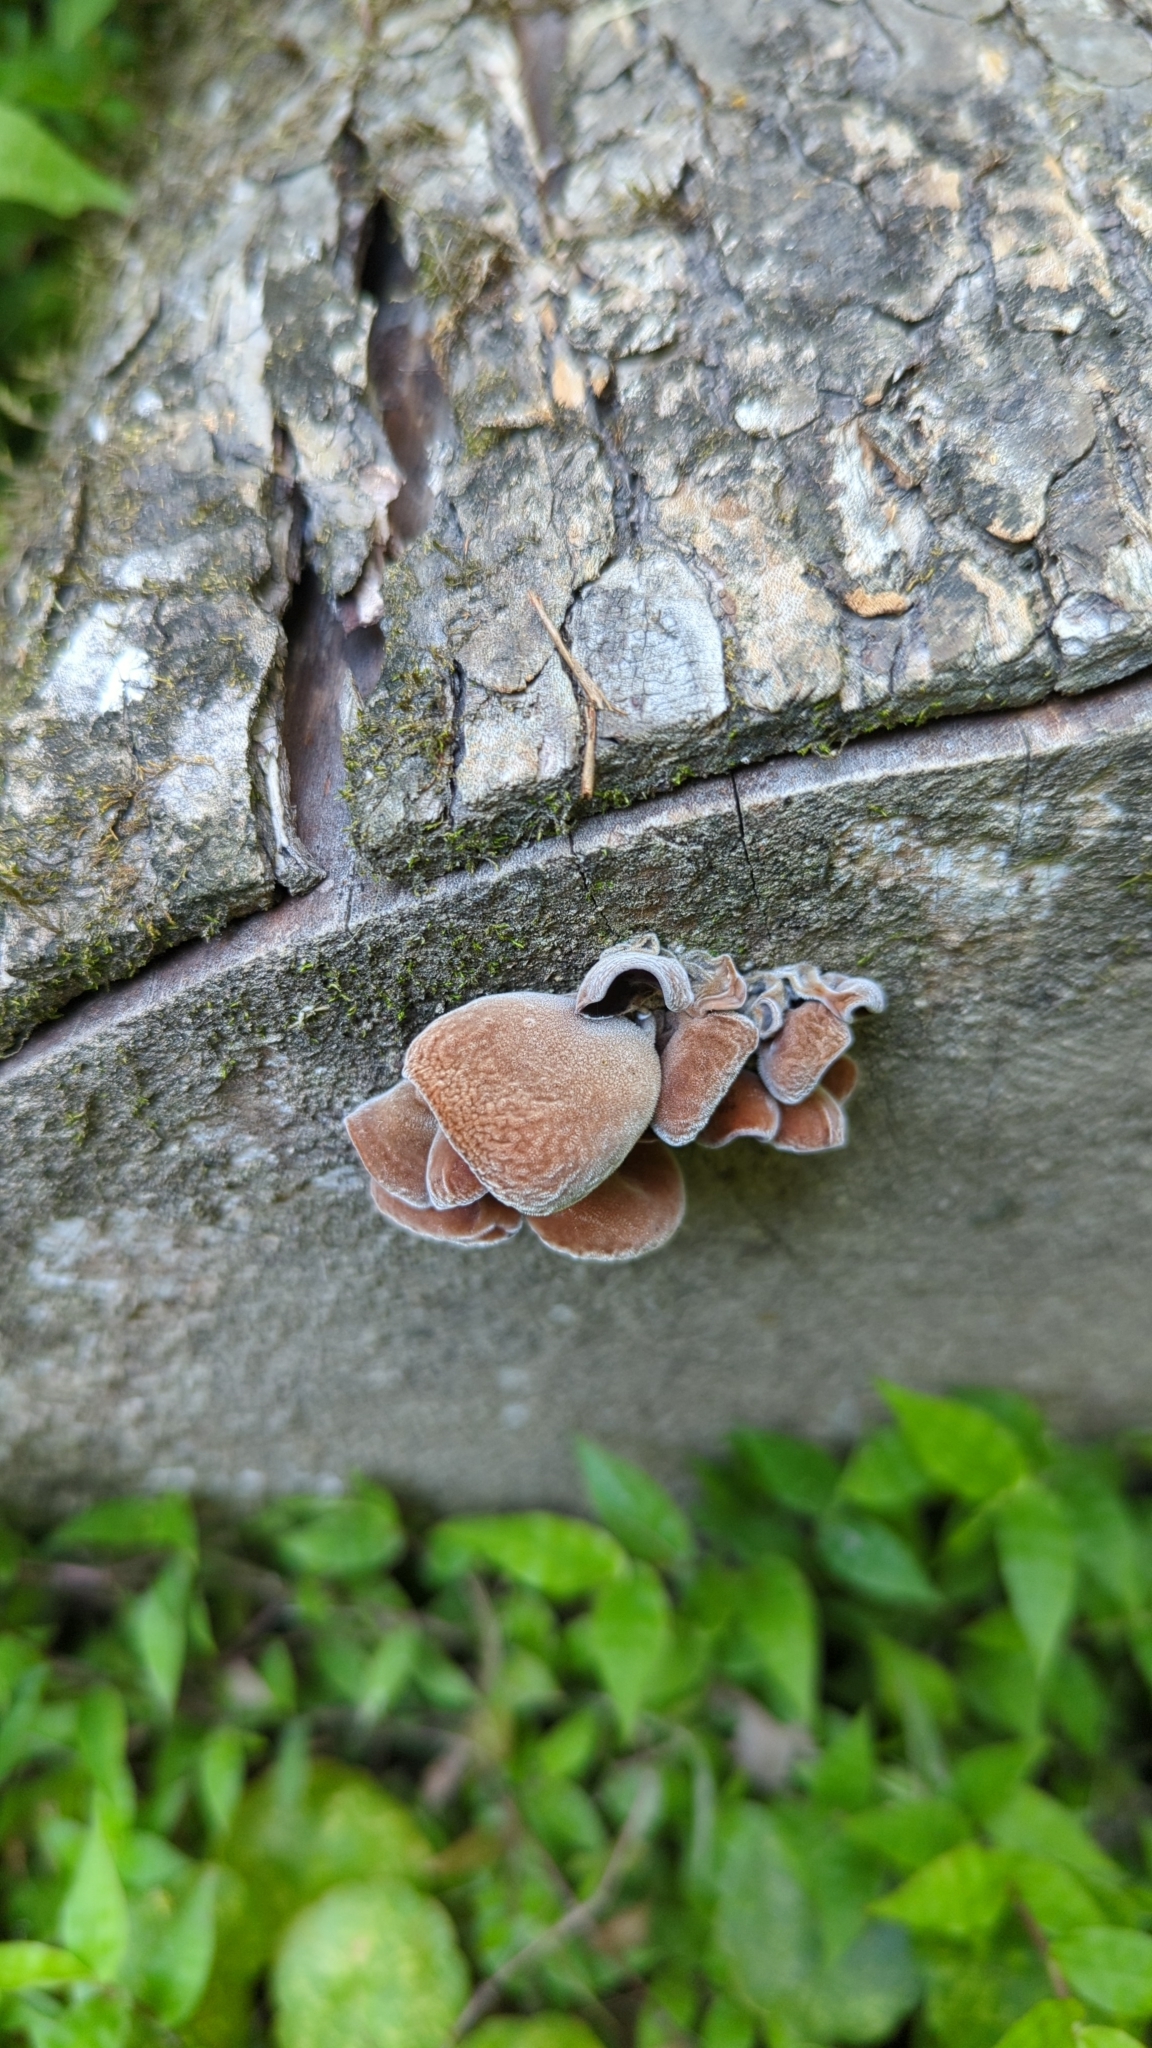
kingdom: Fungi
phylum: Basidiomycota
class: Agaricomycetes
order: Auriculariales
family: Auriculariaceae
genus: Auricularia
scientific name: Auricularia
